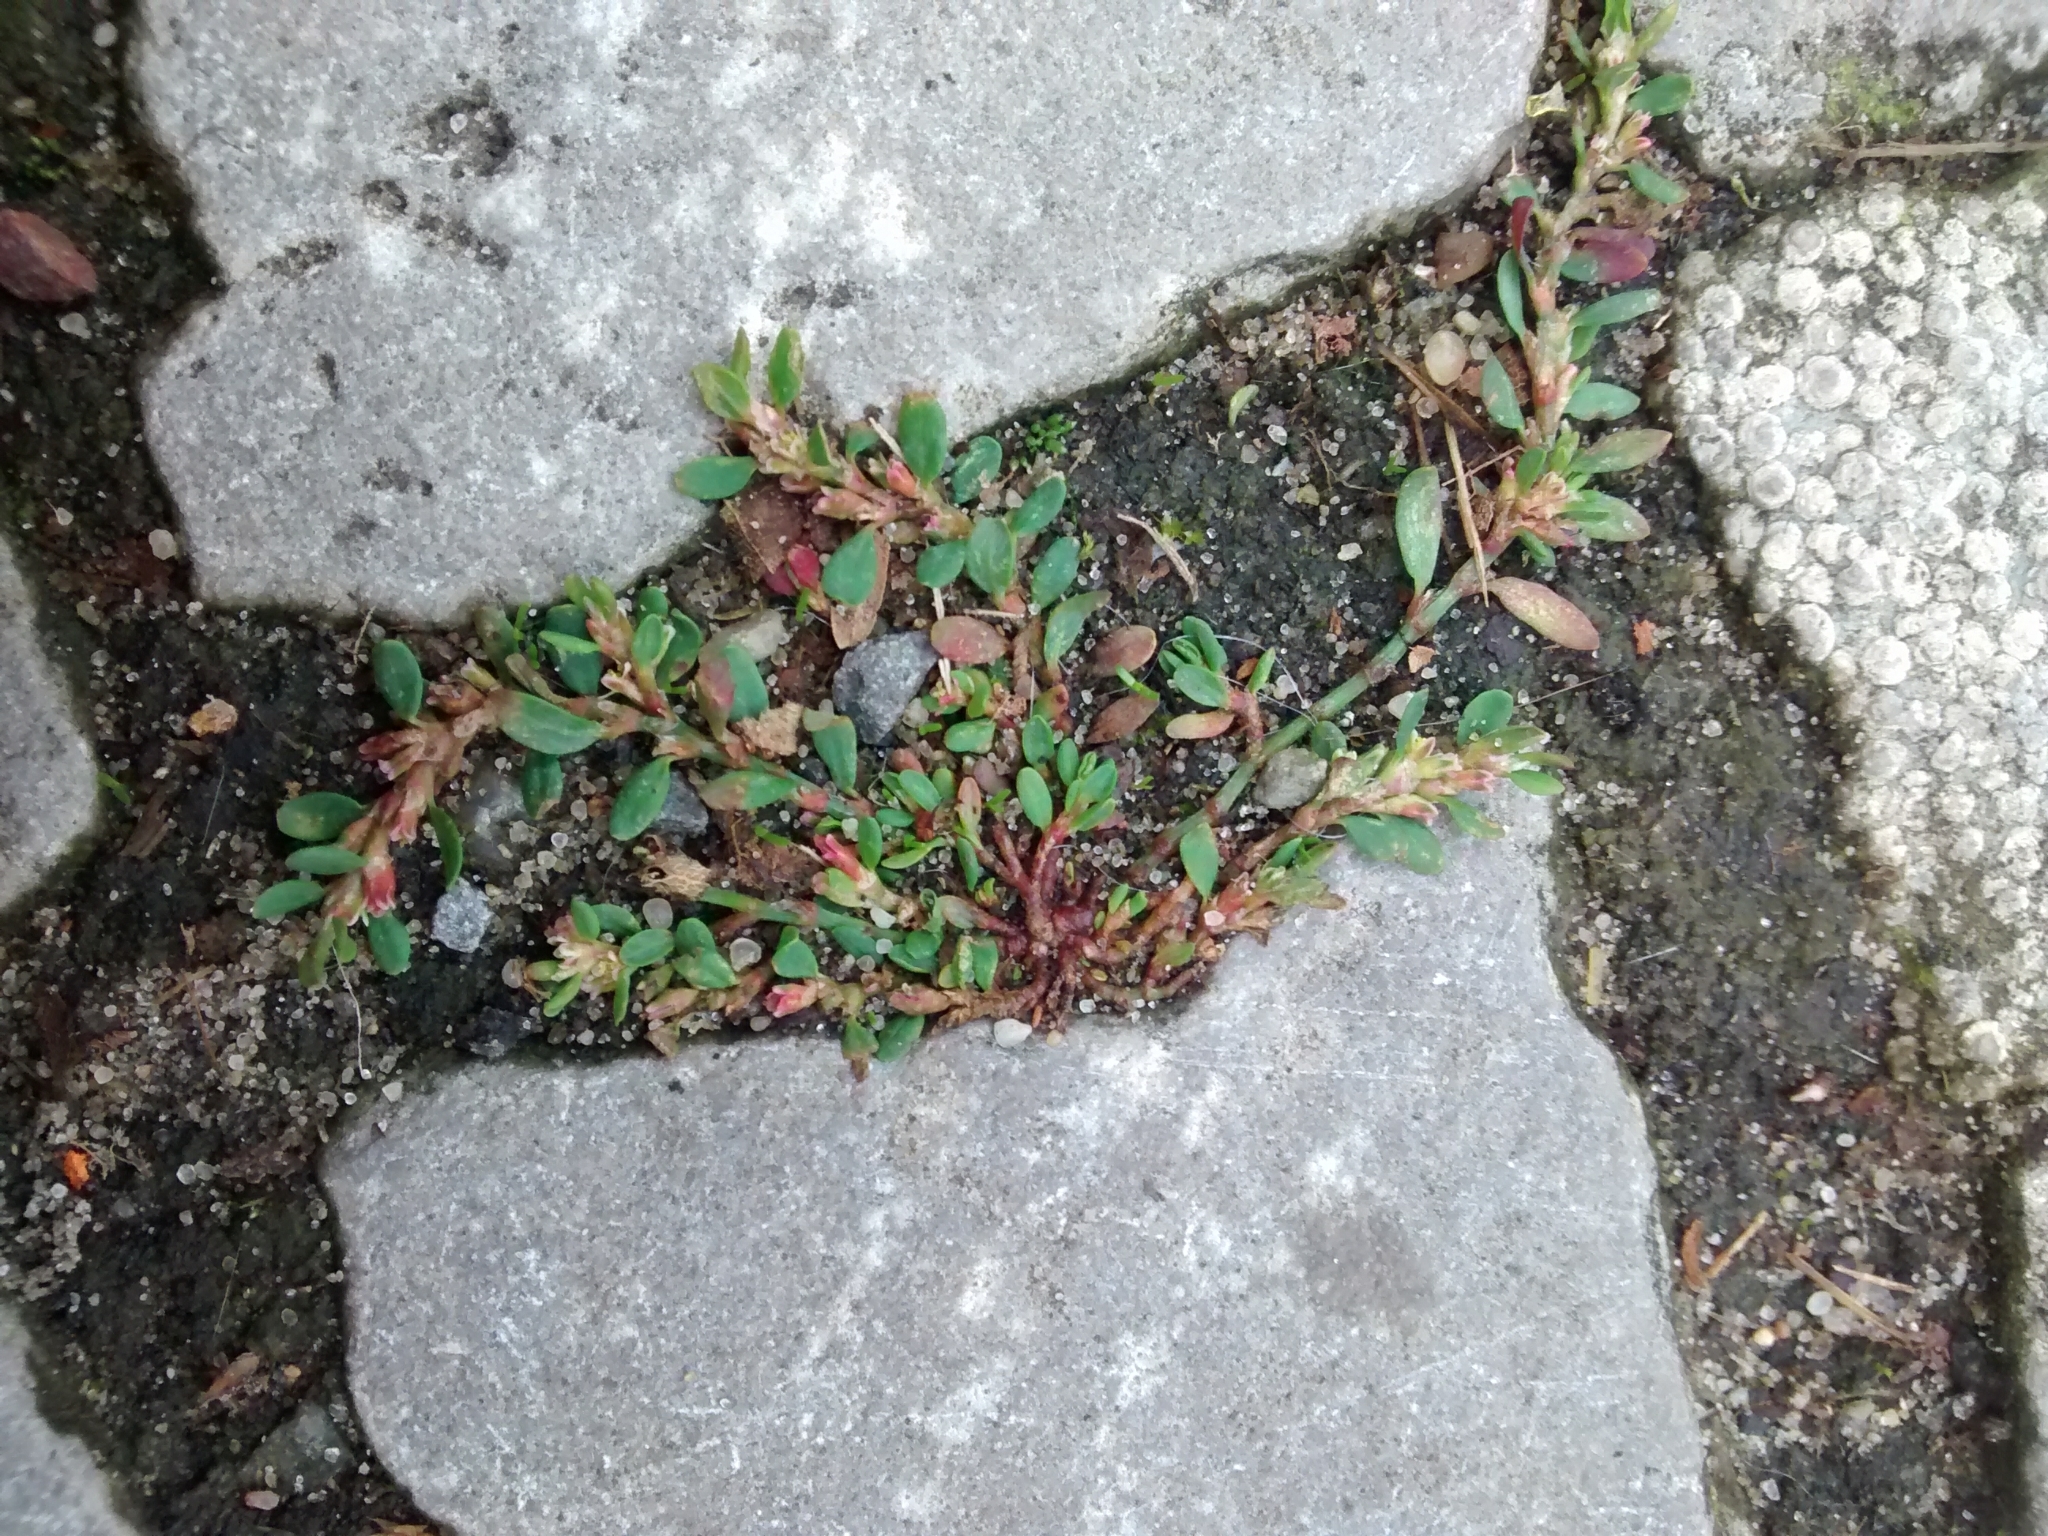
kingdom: Plantae
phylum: Tracheophyta
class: Magnoliopsida
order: Caryophyllales
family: Polygonaceae
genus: Polygonum
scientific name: Polygonum aviculare
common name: Prostrate knotweed
